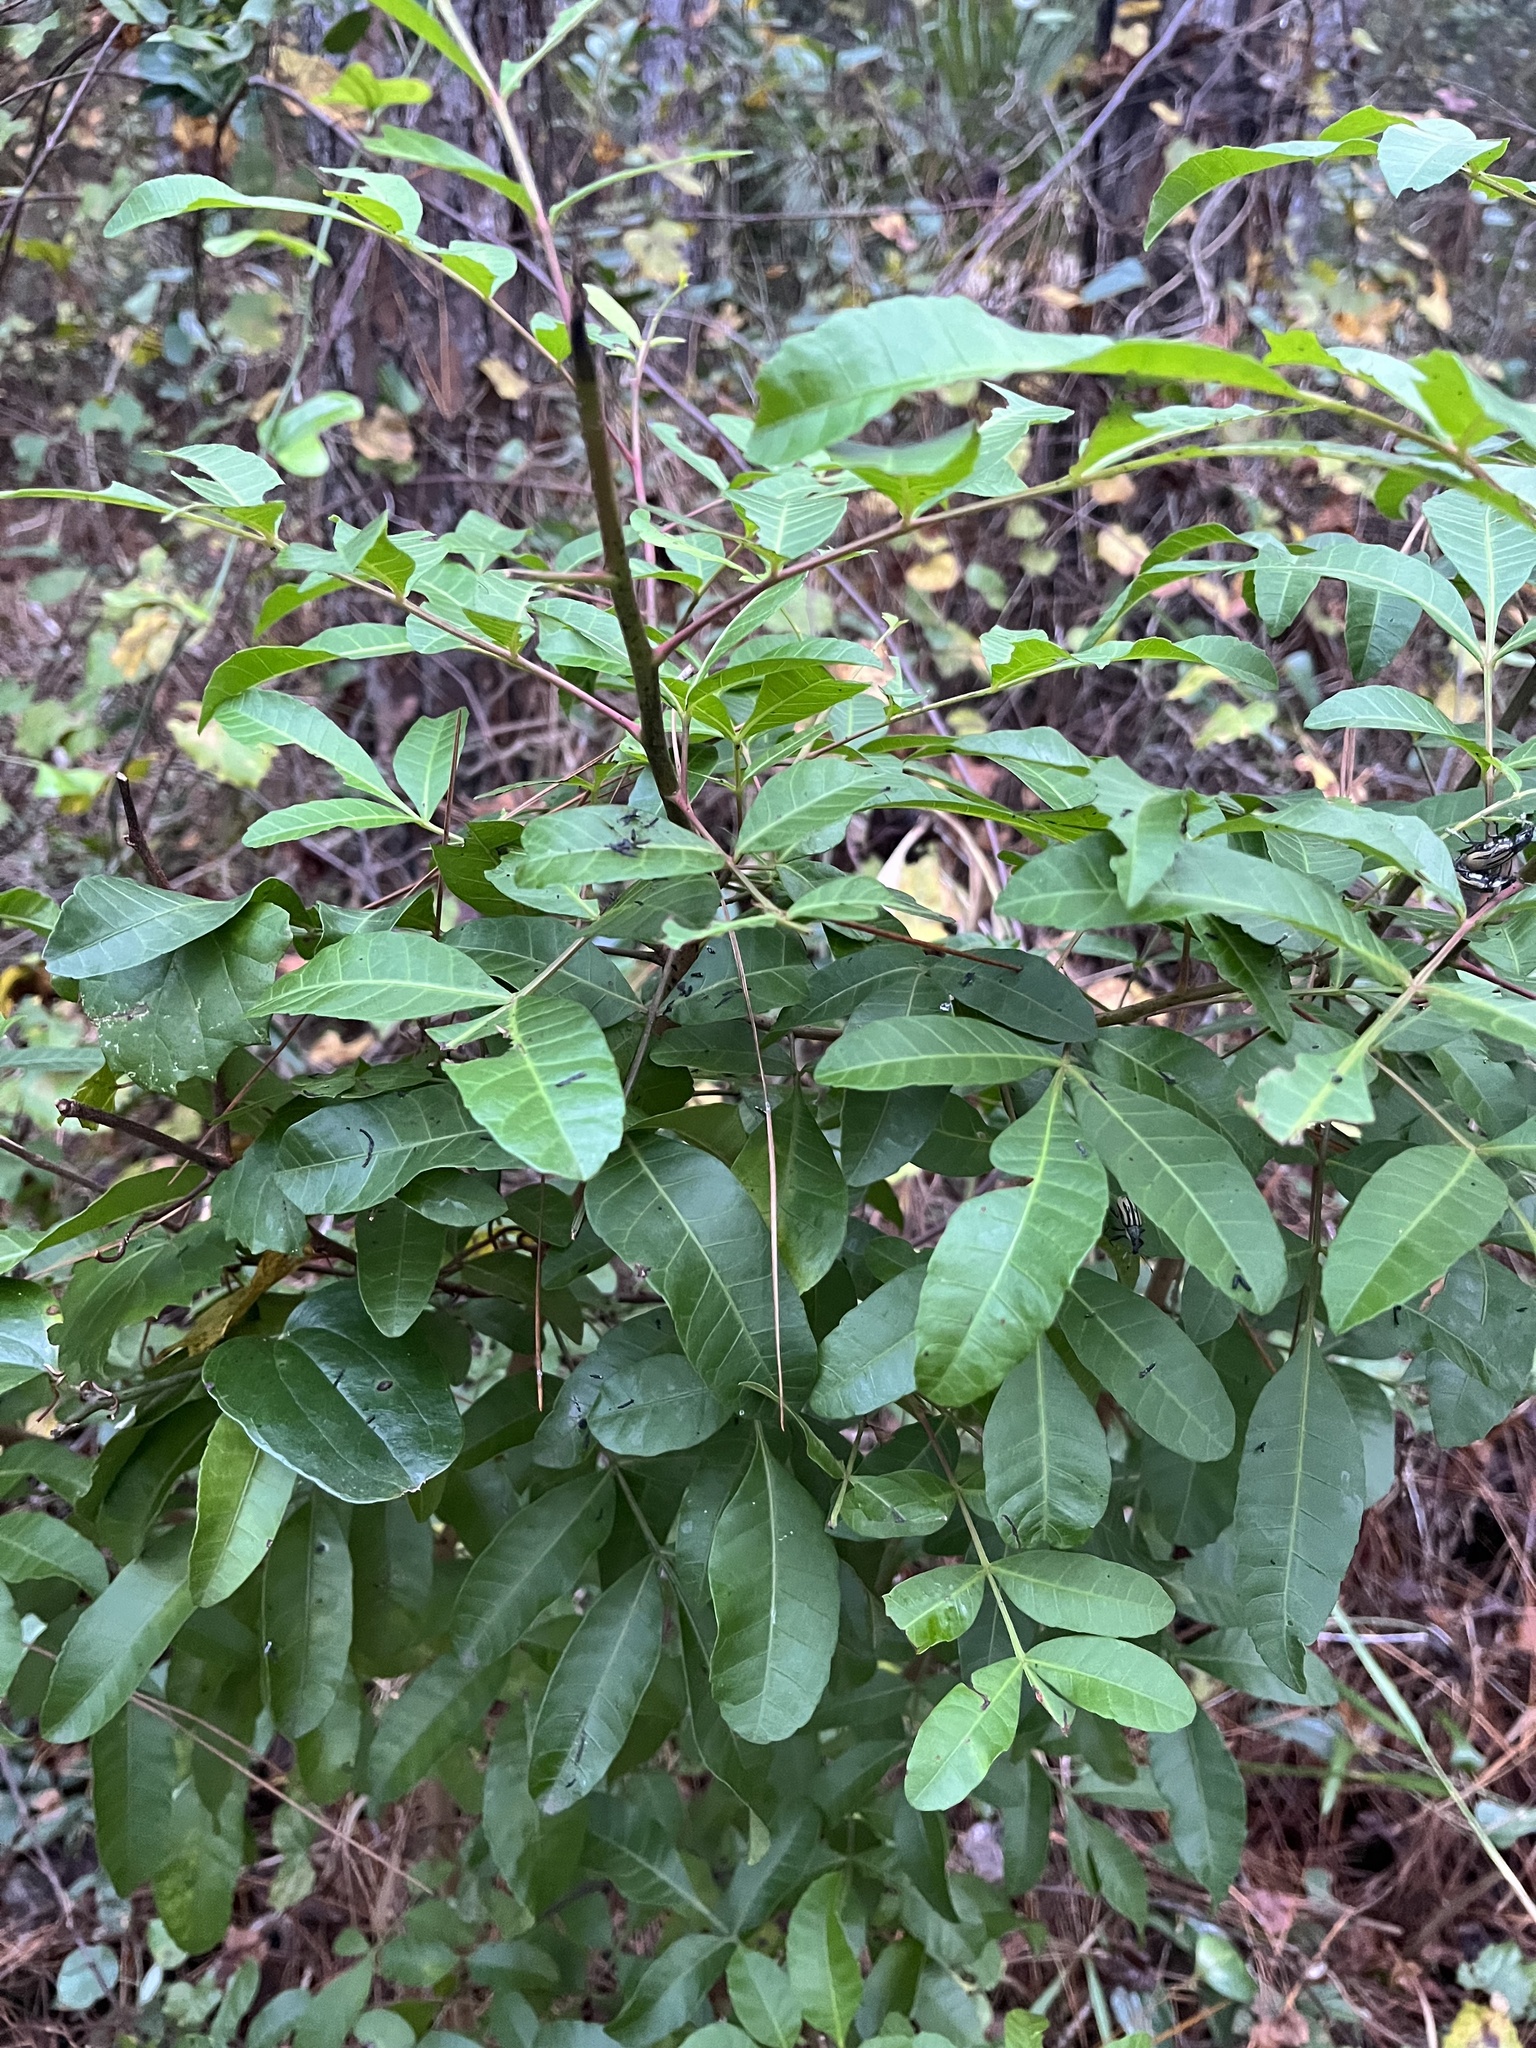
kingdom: Plantae
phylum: Tracheophyta
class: Magnoliopsida
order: Sapindales
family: Anacardiaceae
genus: Schinus
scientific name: Schinus terebinthifolia
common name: Brazilian peppertree
